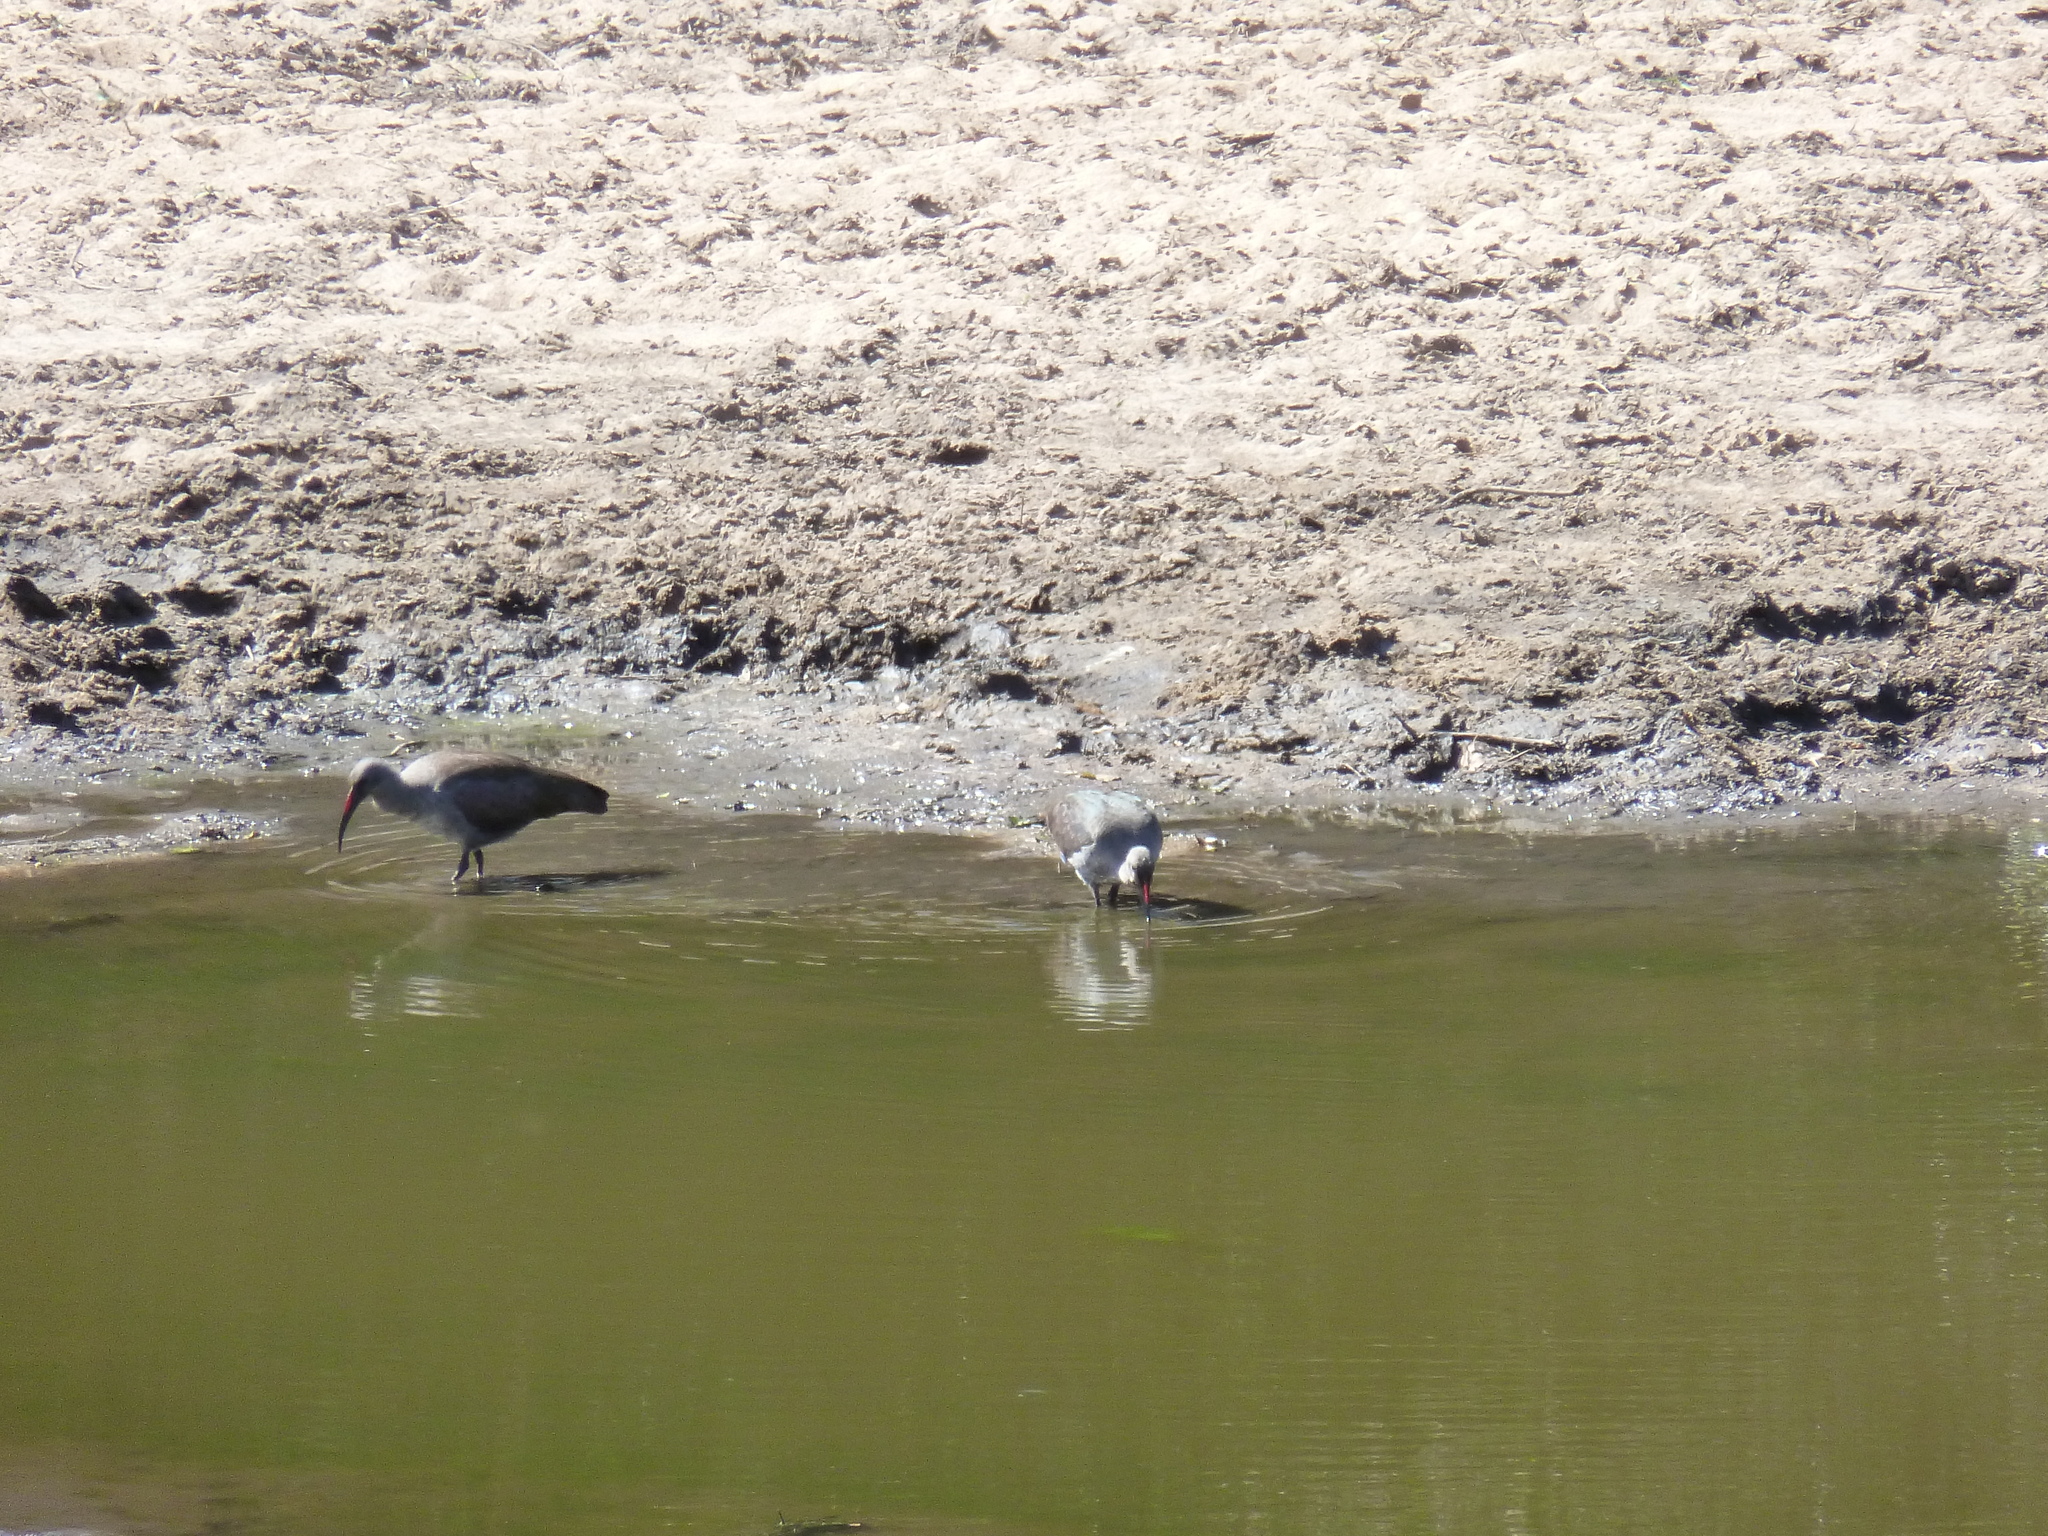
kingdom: Animalia
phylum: Chordata
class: Aves
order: Pelecaniformes
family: Threskiornithidae
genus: Bostrychia
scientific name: Bostrychia hagedash
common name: Hadada ibis
